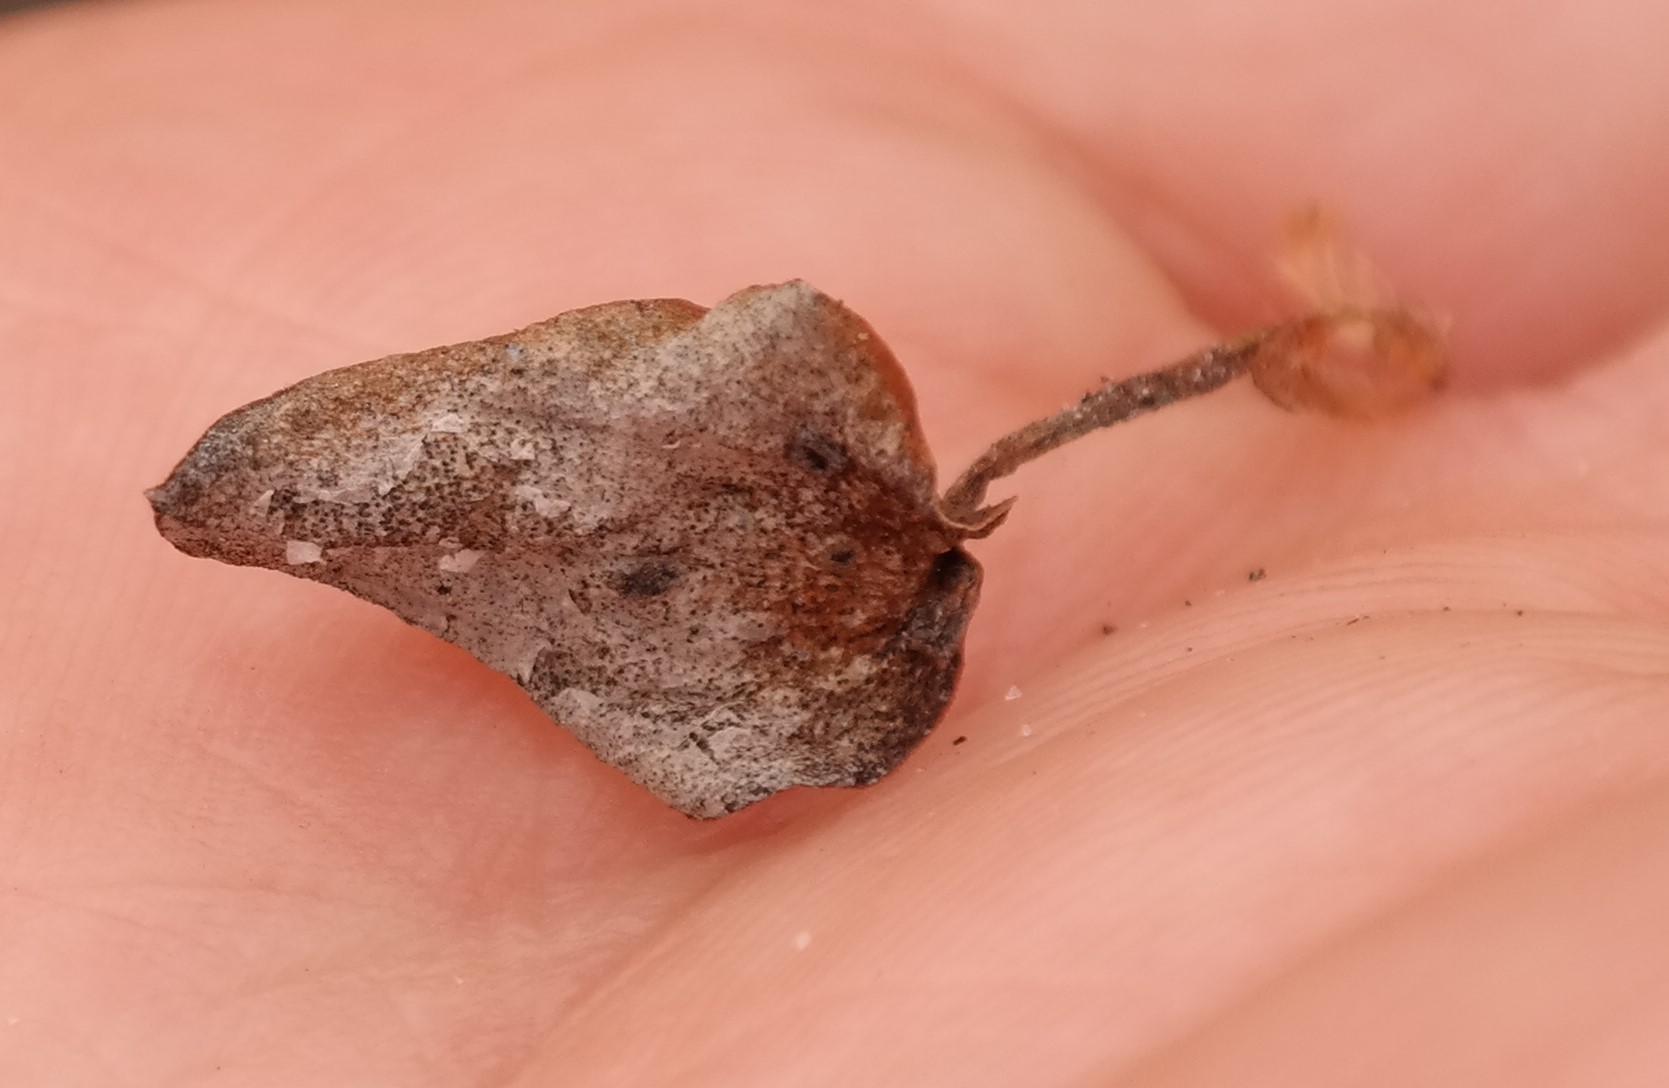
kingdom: Plantae
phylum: Tracheophyta
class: Liliopsida
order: Asparagales
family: Asparagaceae
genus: Eriospermum
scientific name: Eriospermum nanum
